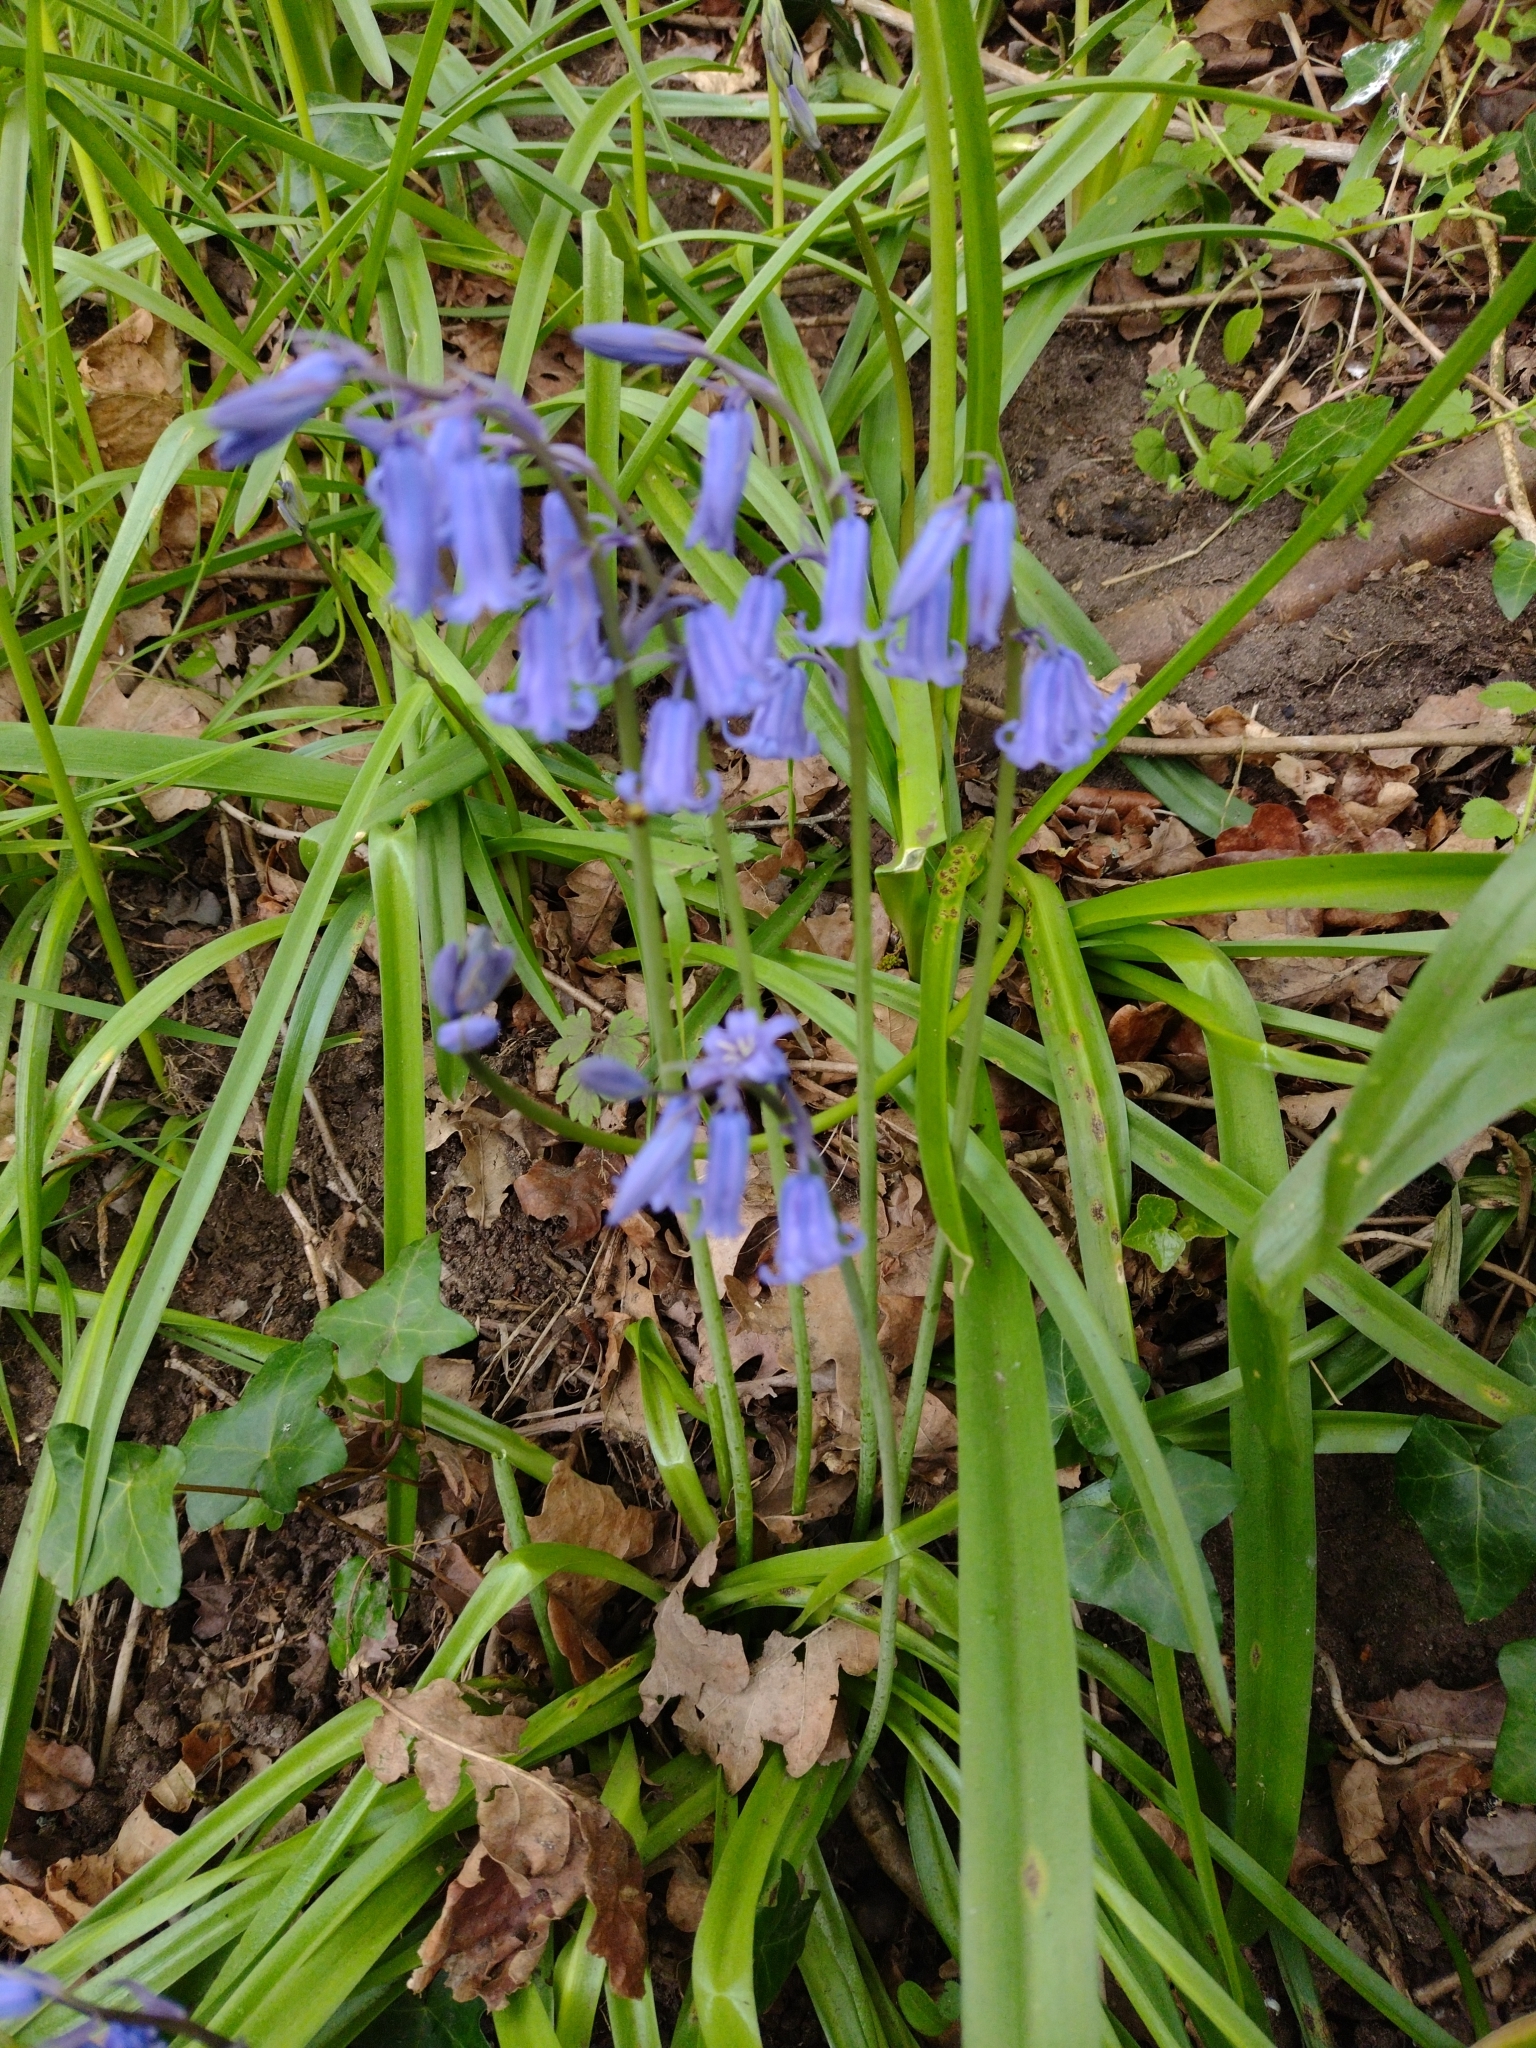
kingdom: Plantae
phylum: Tracheophyta
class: Liliopsida
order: Asparagales
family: Asparagaceae
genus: Hyacinthoides
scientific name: Hyacinthoides non-scripta
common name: Bluebell
